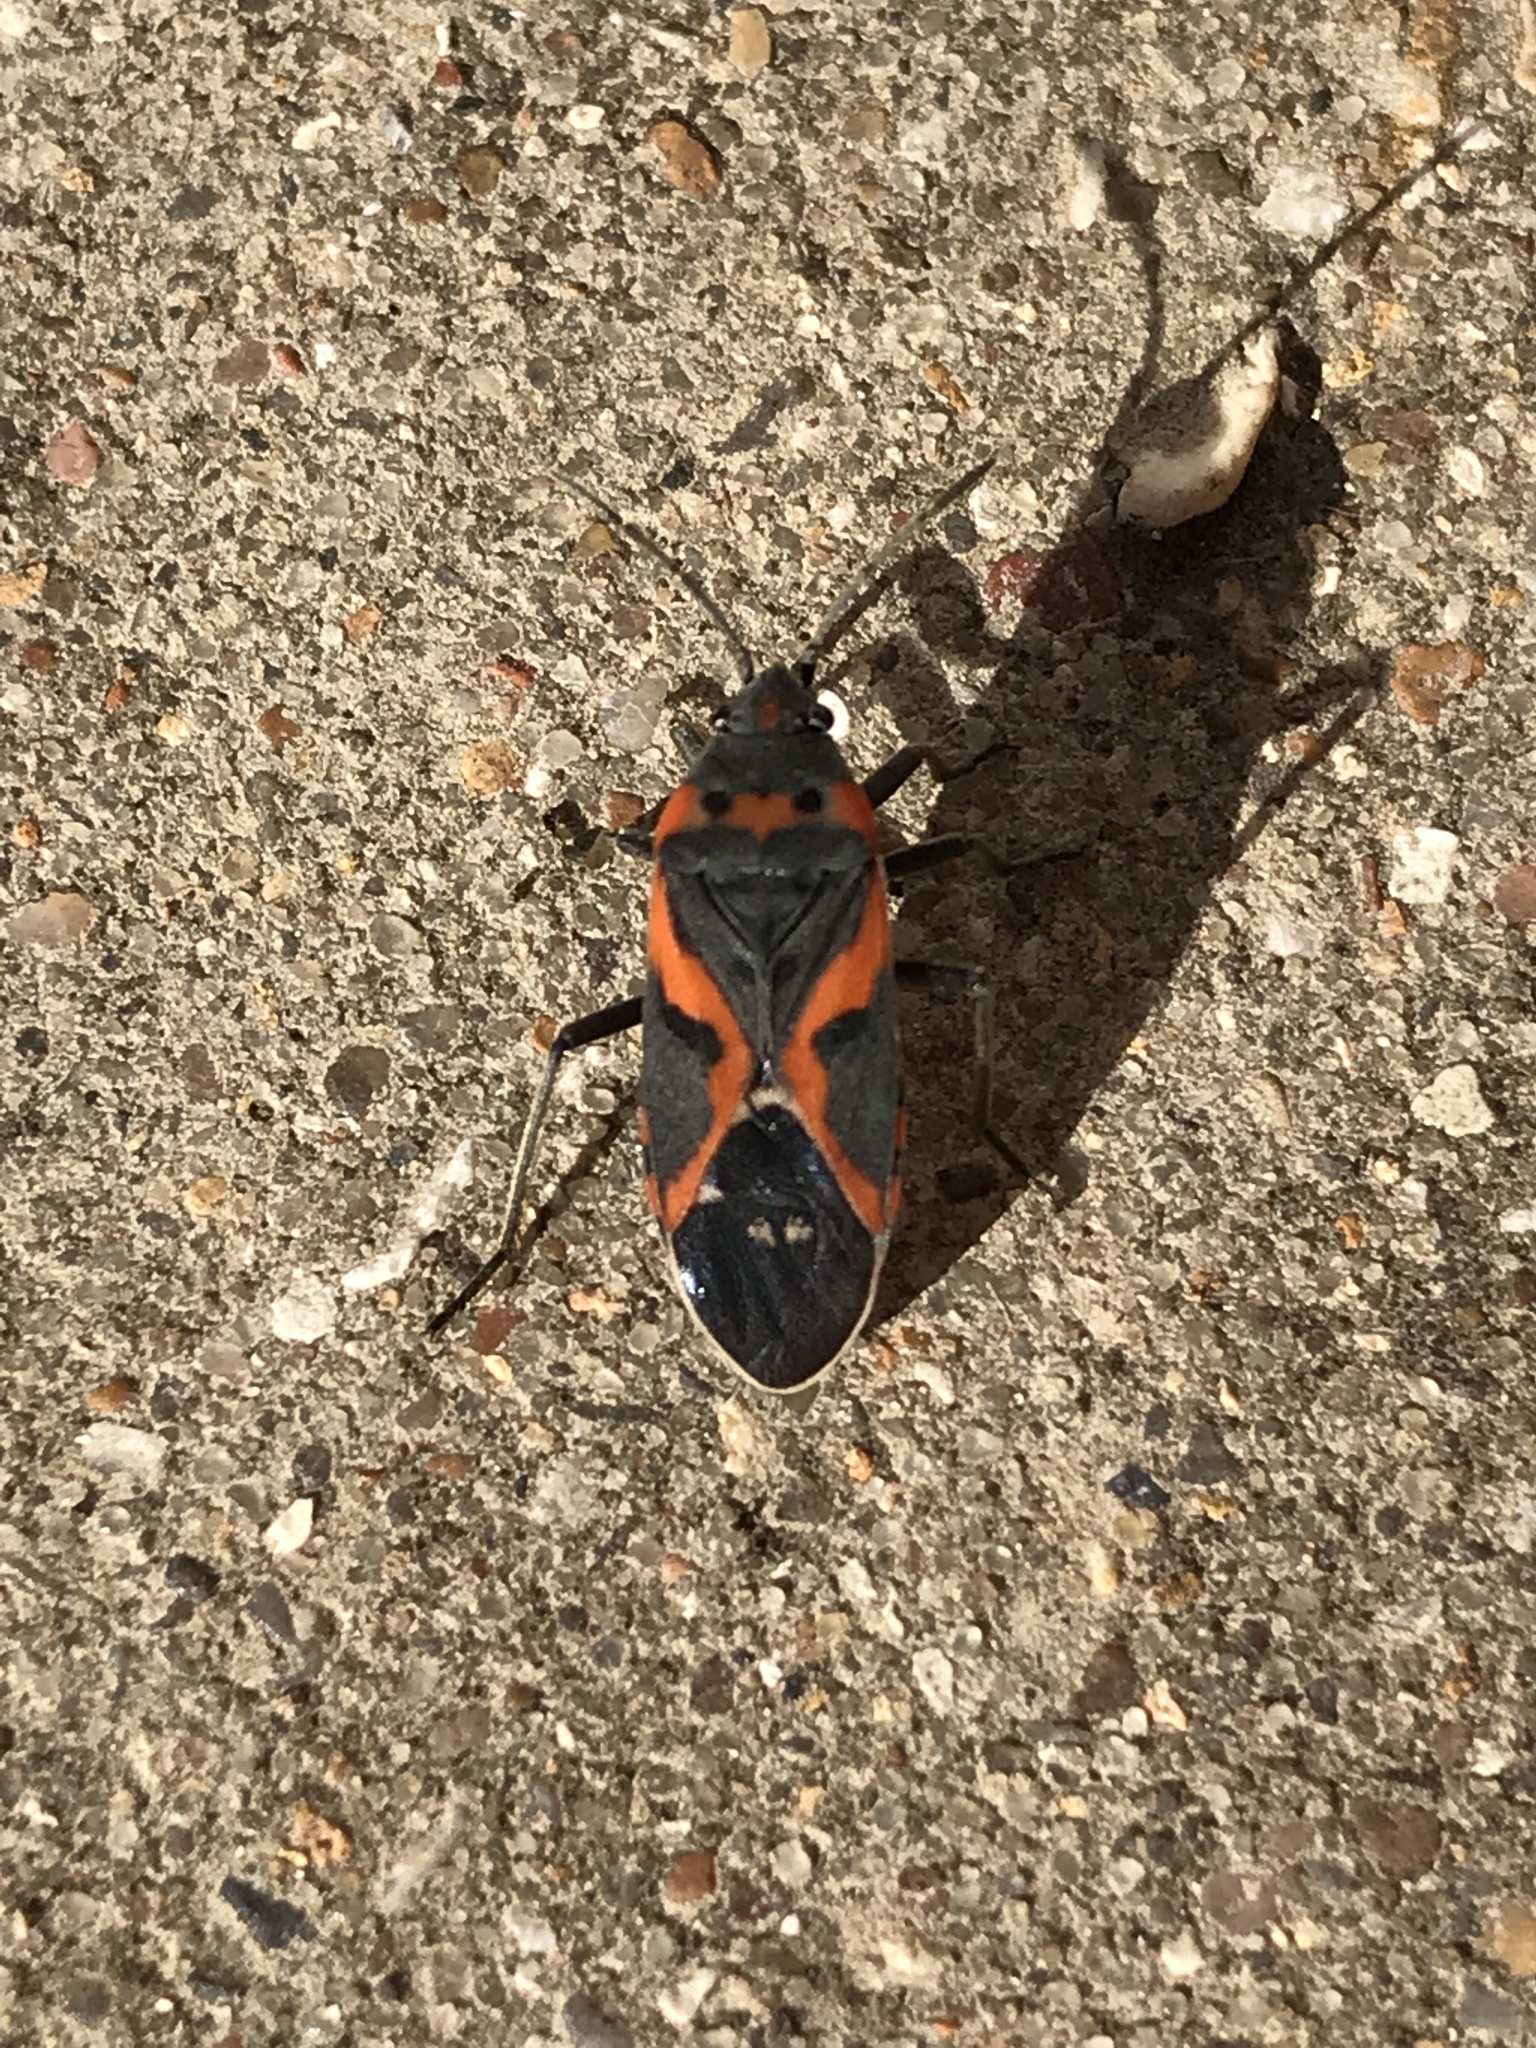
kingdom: Animalia
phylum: Arthropoda
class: Insecta
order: Hemiptera
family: Lygaeidae
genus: Lygaeus
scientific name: Lygaeus kalmii
